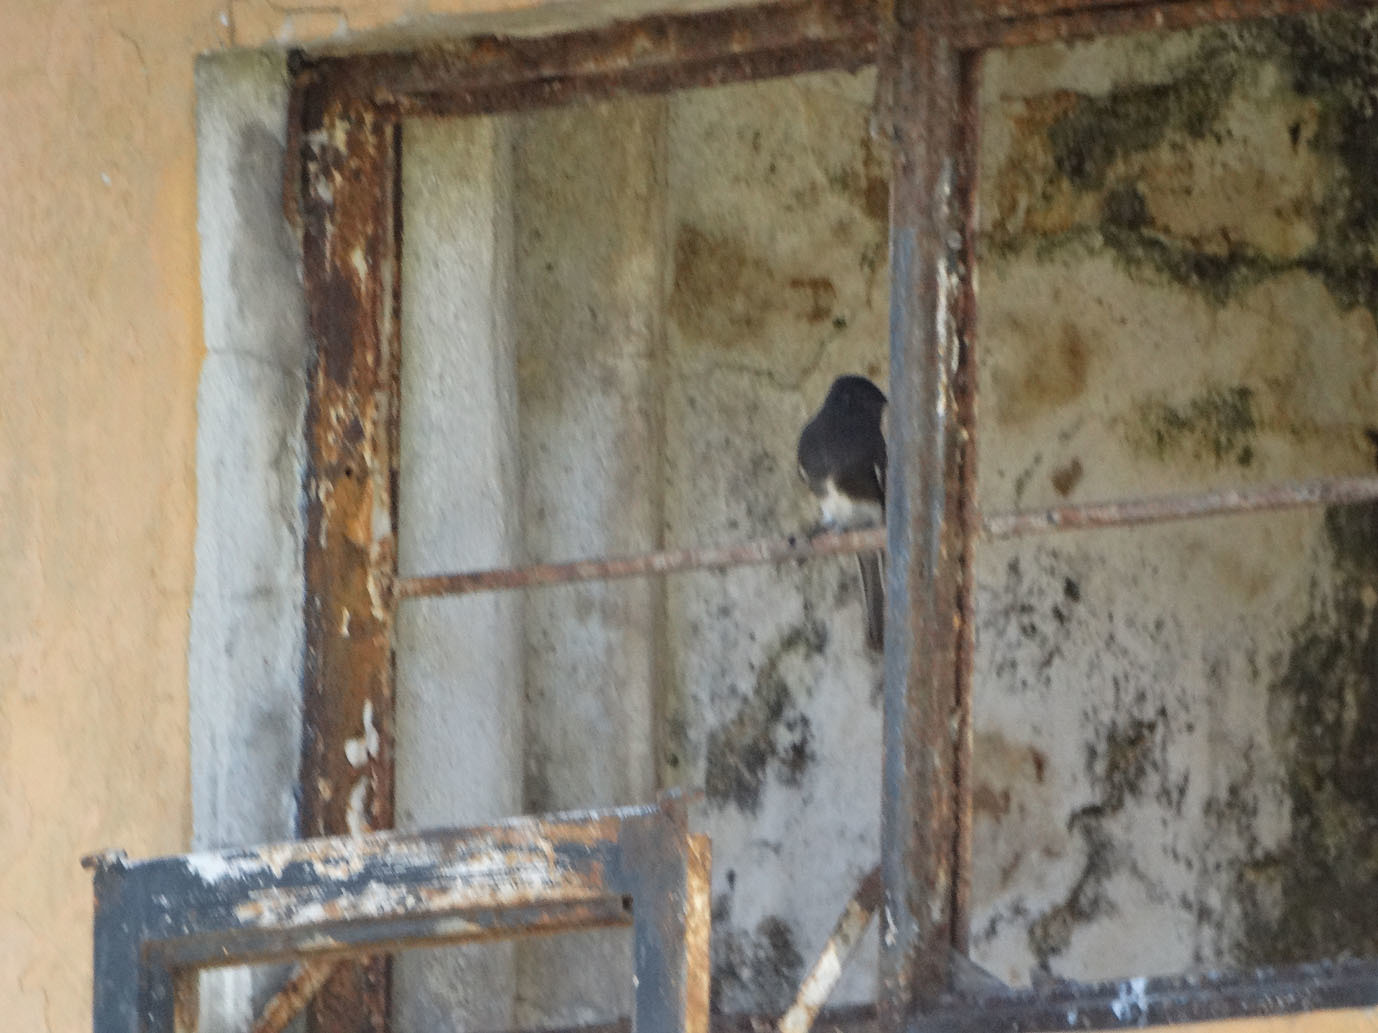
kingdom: Animalia
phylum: Chordata
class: Aves
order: Passeriformes
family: Tyrannidae
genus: Sayornis
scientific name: Sayornis nigricans
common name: Black phoebe
